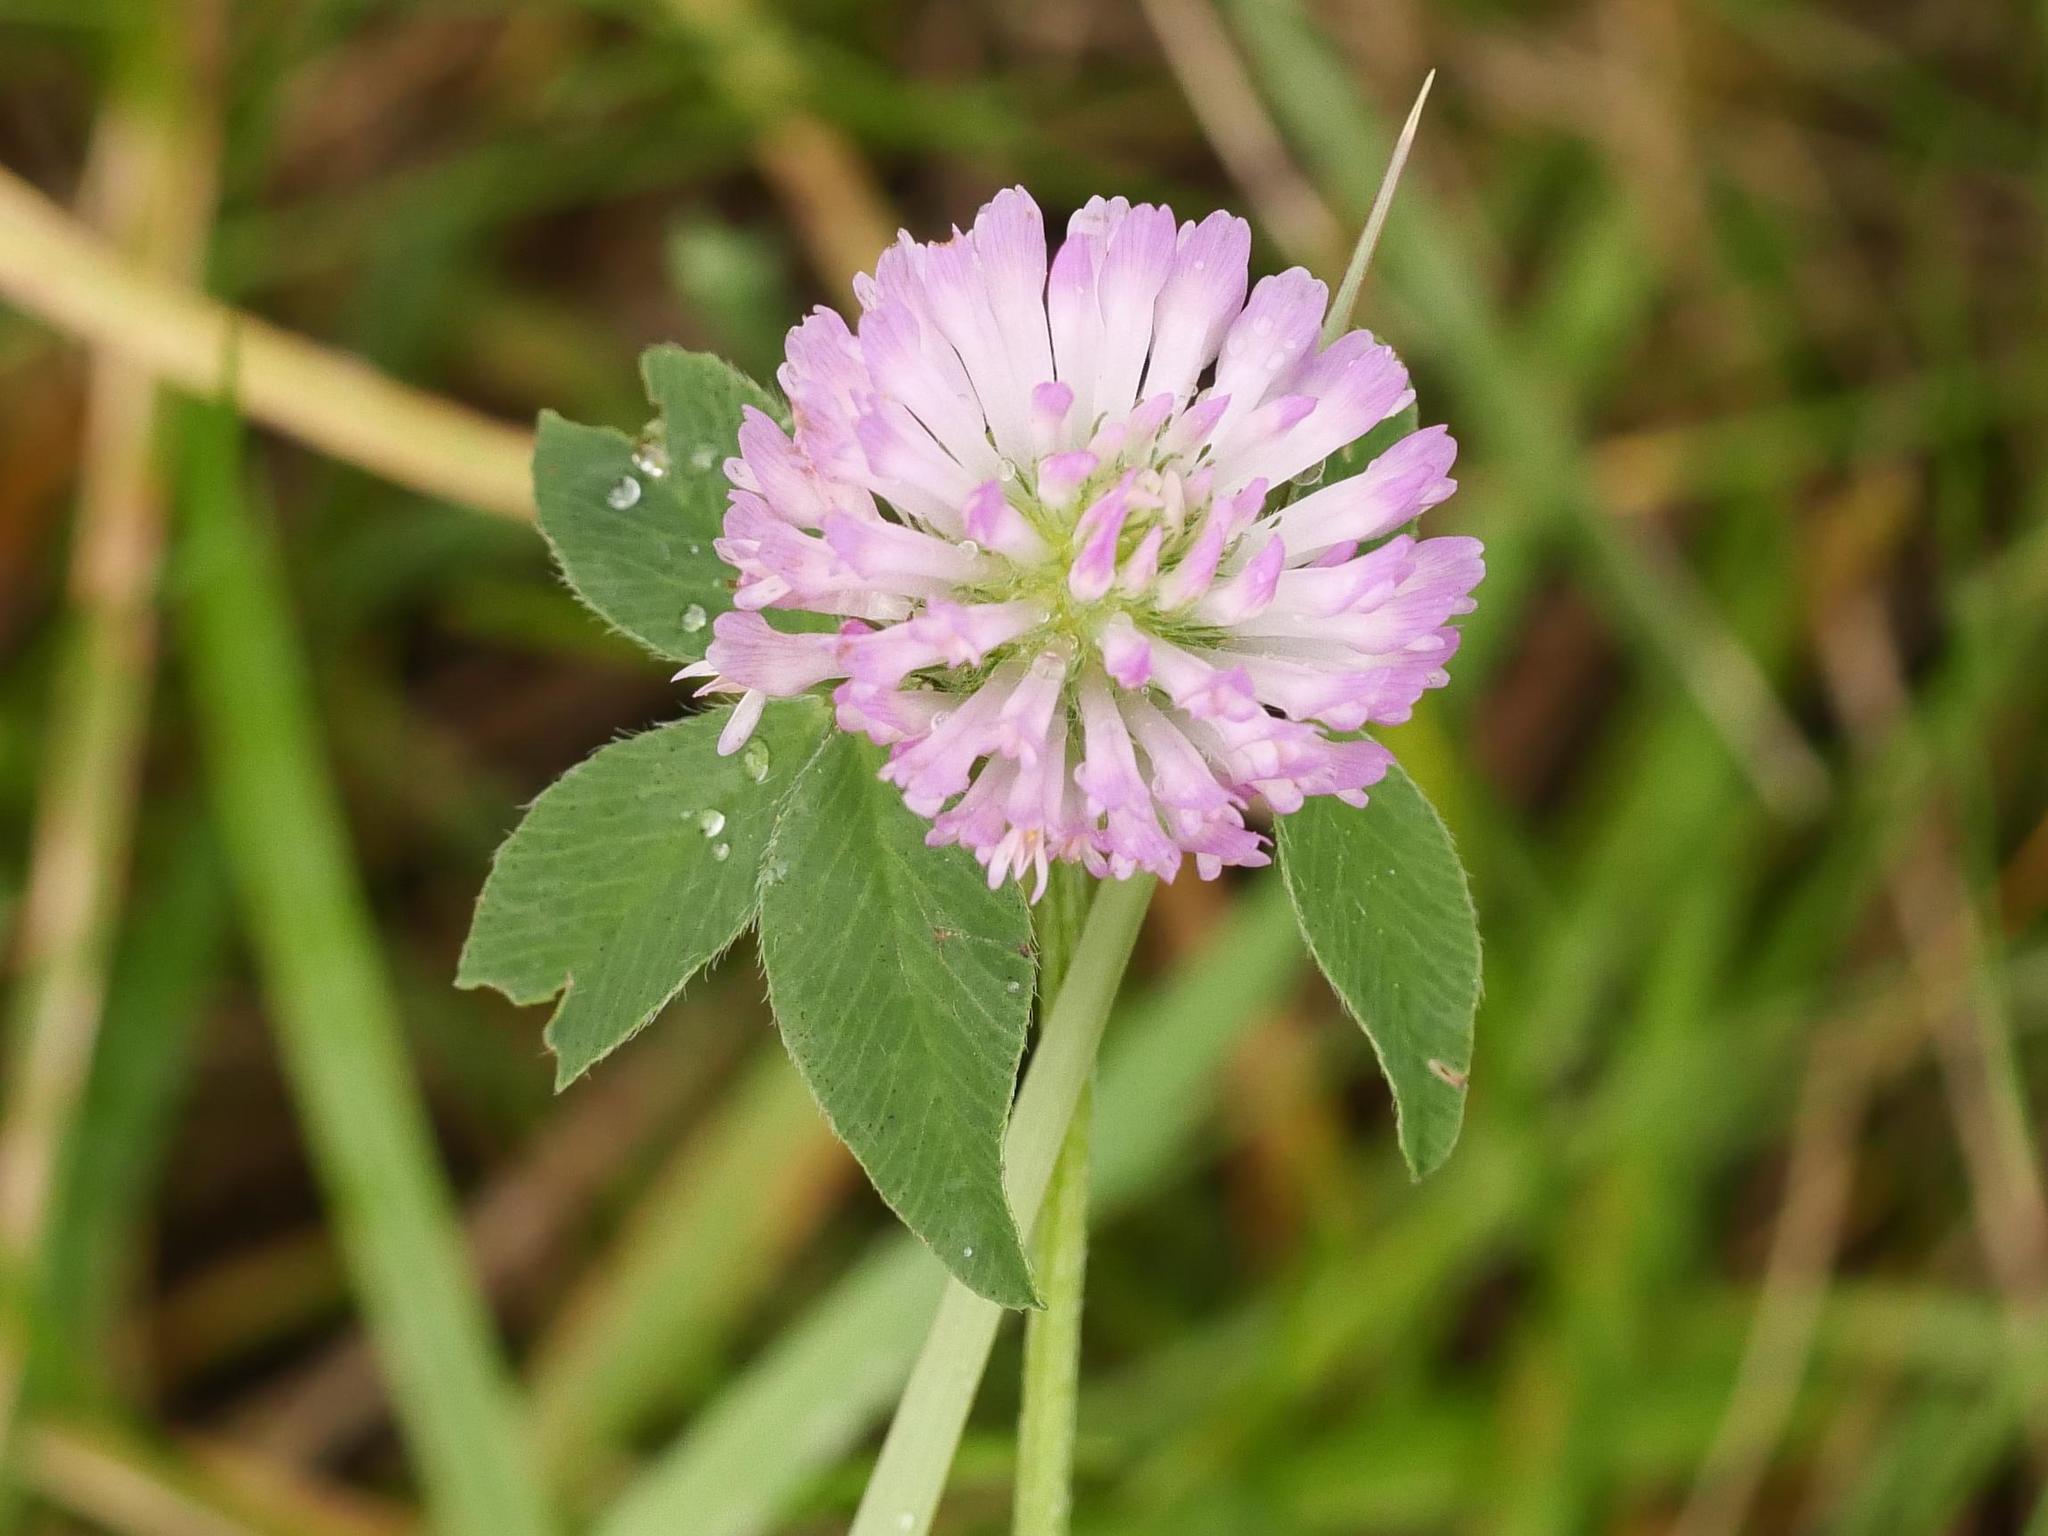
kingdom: Plantae
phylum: Tracheophyta
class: Magnoliopsida
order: Fabales
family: Fabaceae
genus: Trifolium
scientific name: Trifolium pratense
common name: Red clover
